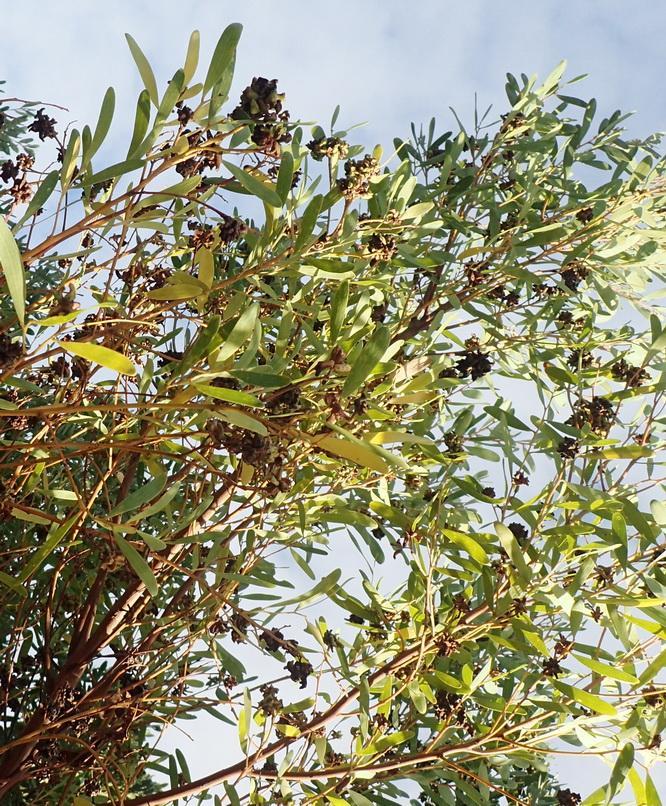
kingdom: Animalia
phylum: Arthropoda
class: Insecta
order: Diptera
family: Cecidomyiidae
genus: Dasineura
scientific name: Dasineura dielsi
